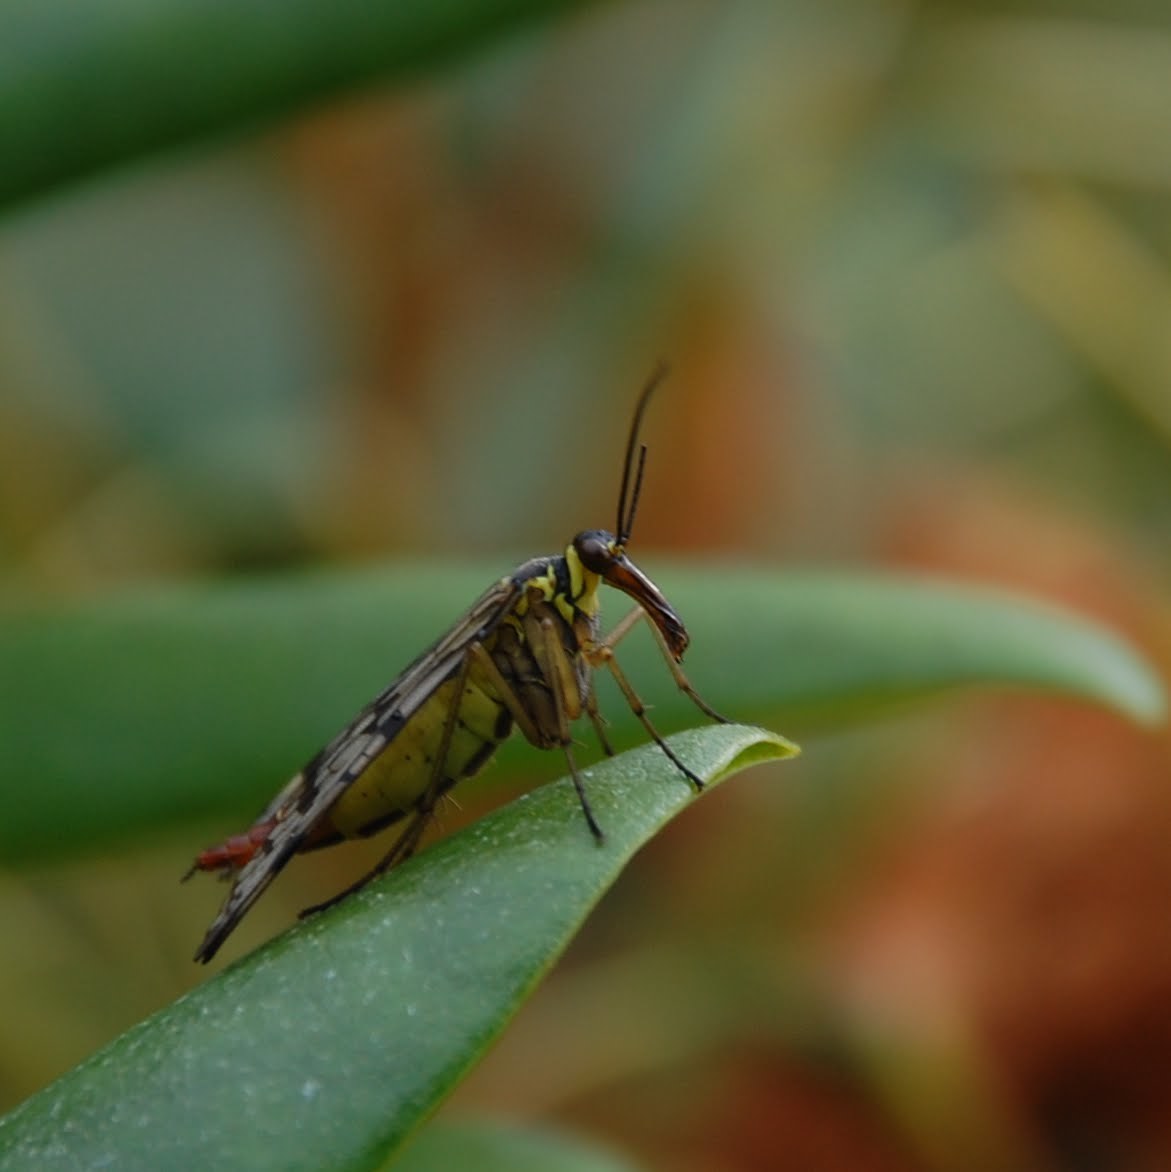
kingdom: Animalia
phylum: Arthropoda
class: Insecta
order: Mecoptera
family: Panorpidae
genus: Panorpa
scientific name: Panorpa communis
